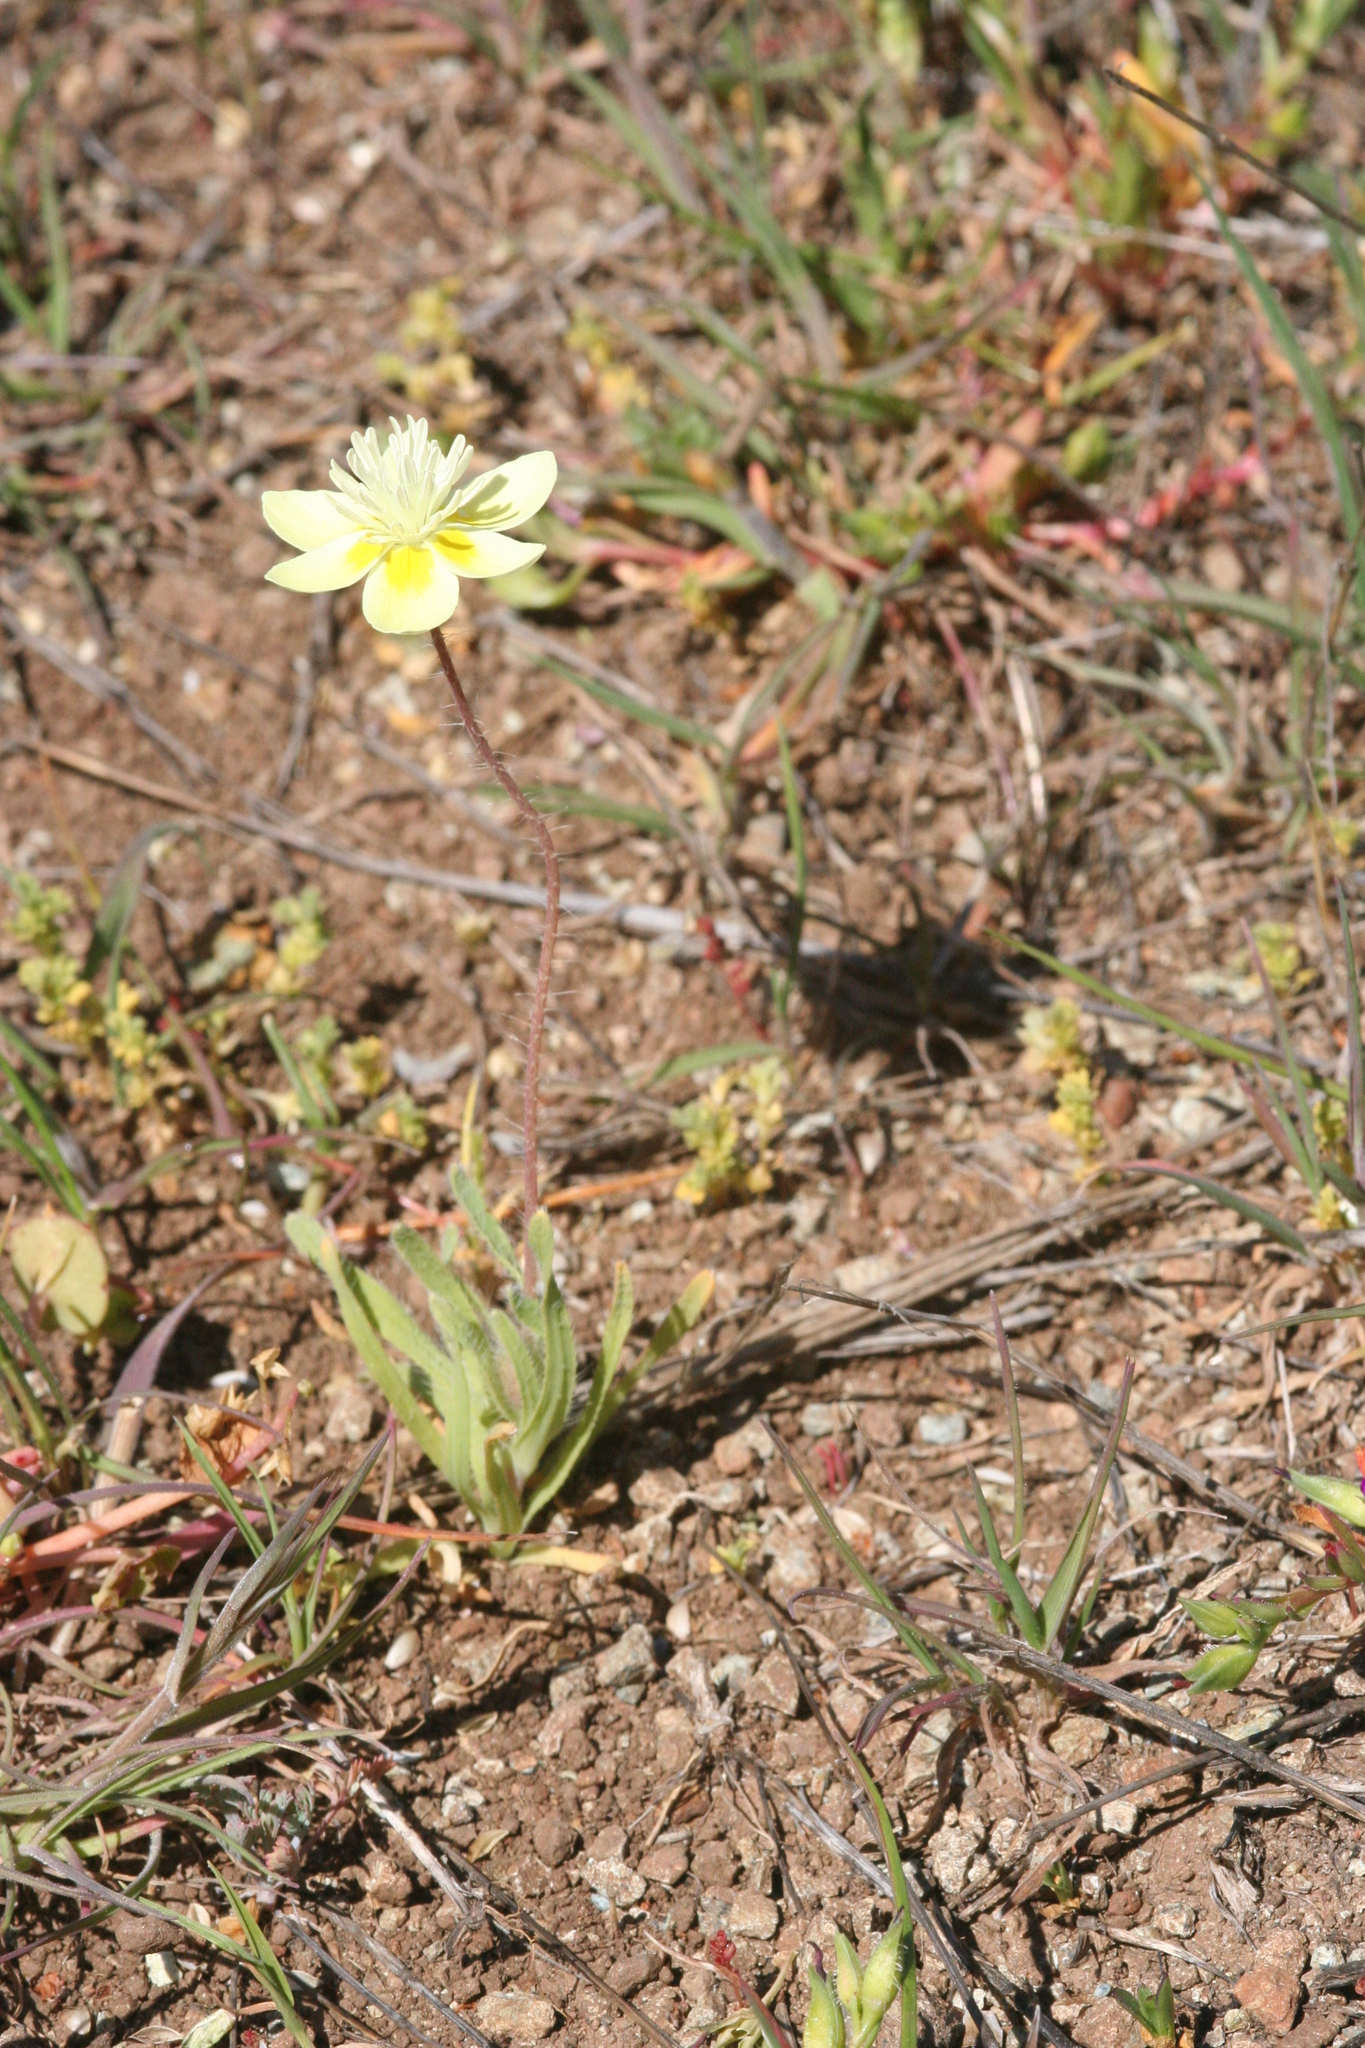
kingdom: Plantae
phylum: Tracheophyta
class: Magnoliopsida
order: Ranunculales
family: Papaveraceae
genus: Platystemon
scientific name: Platystemon californicus
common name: Cream-cups
